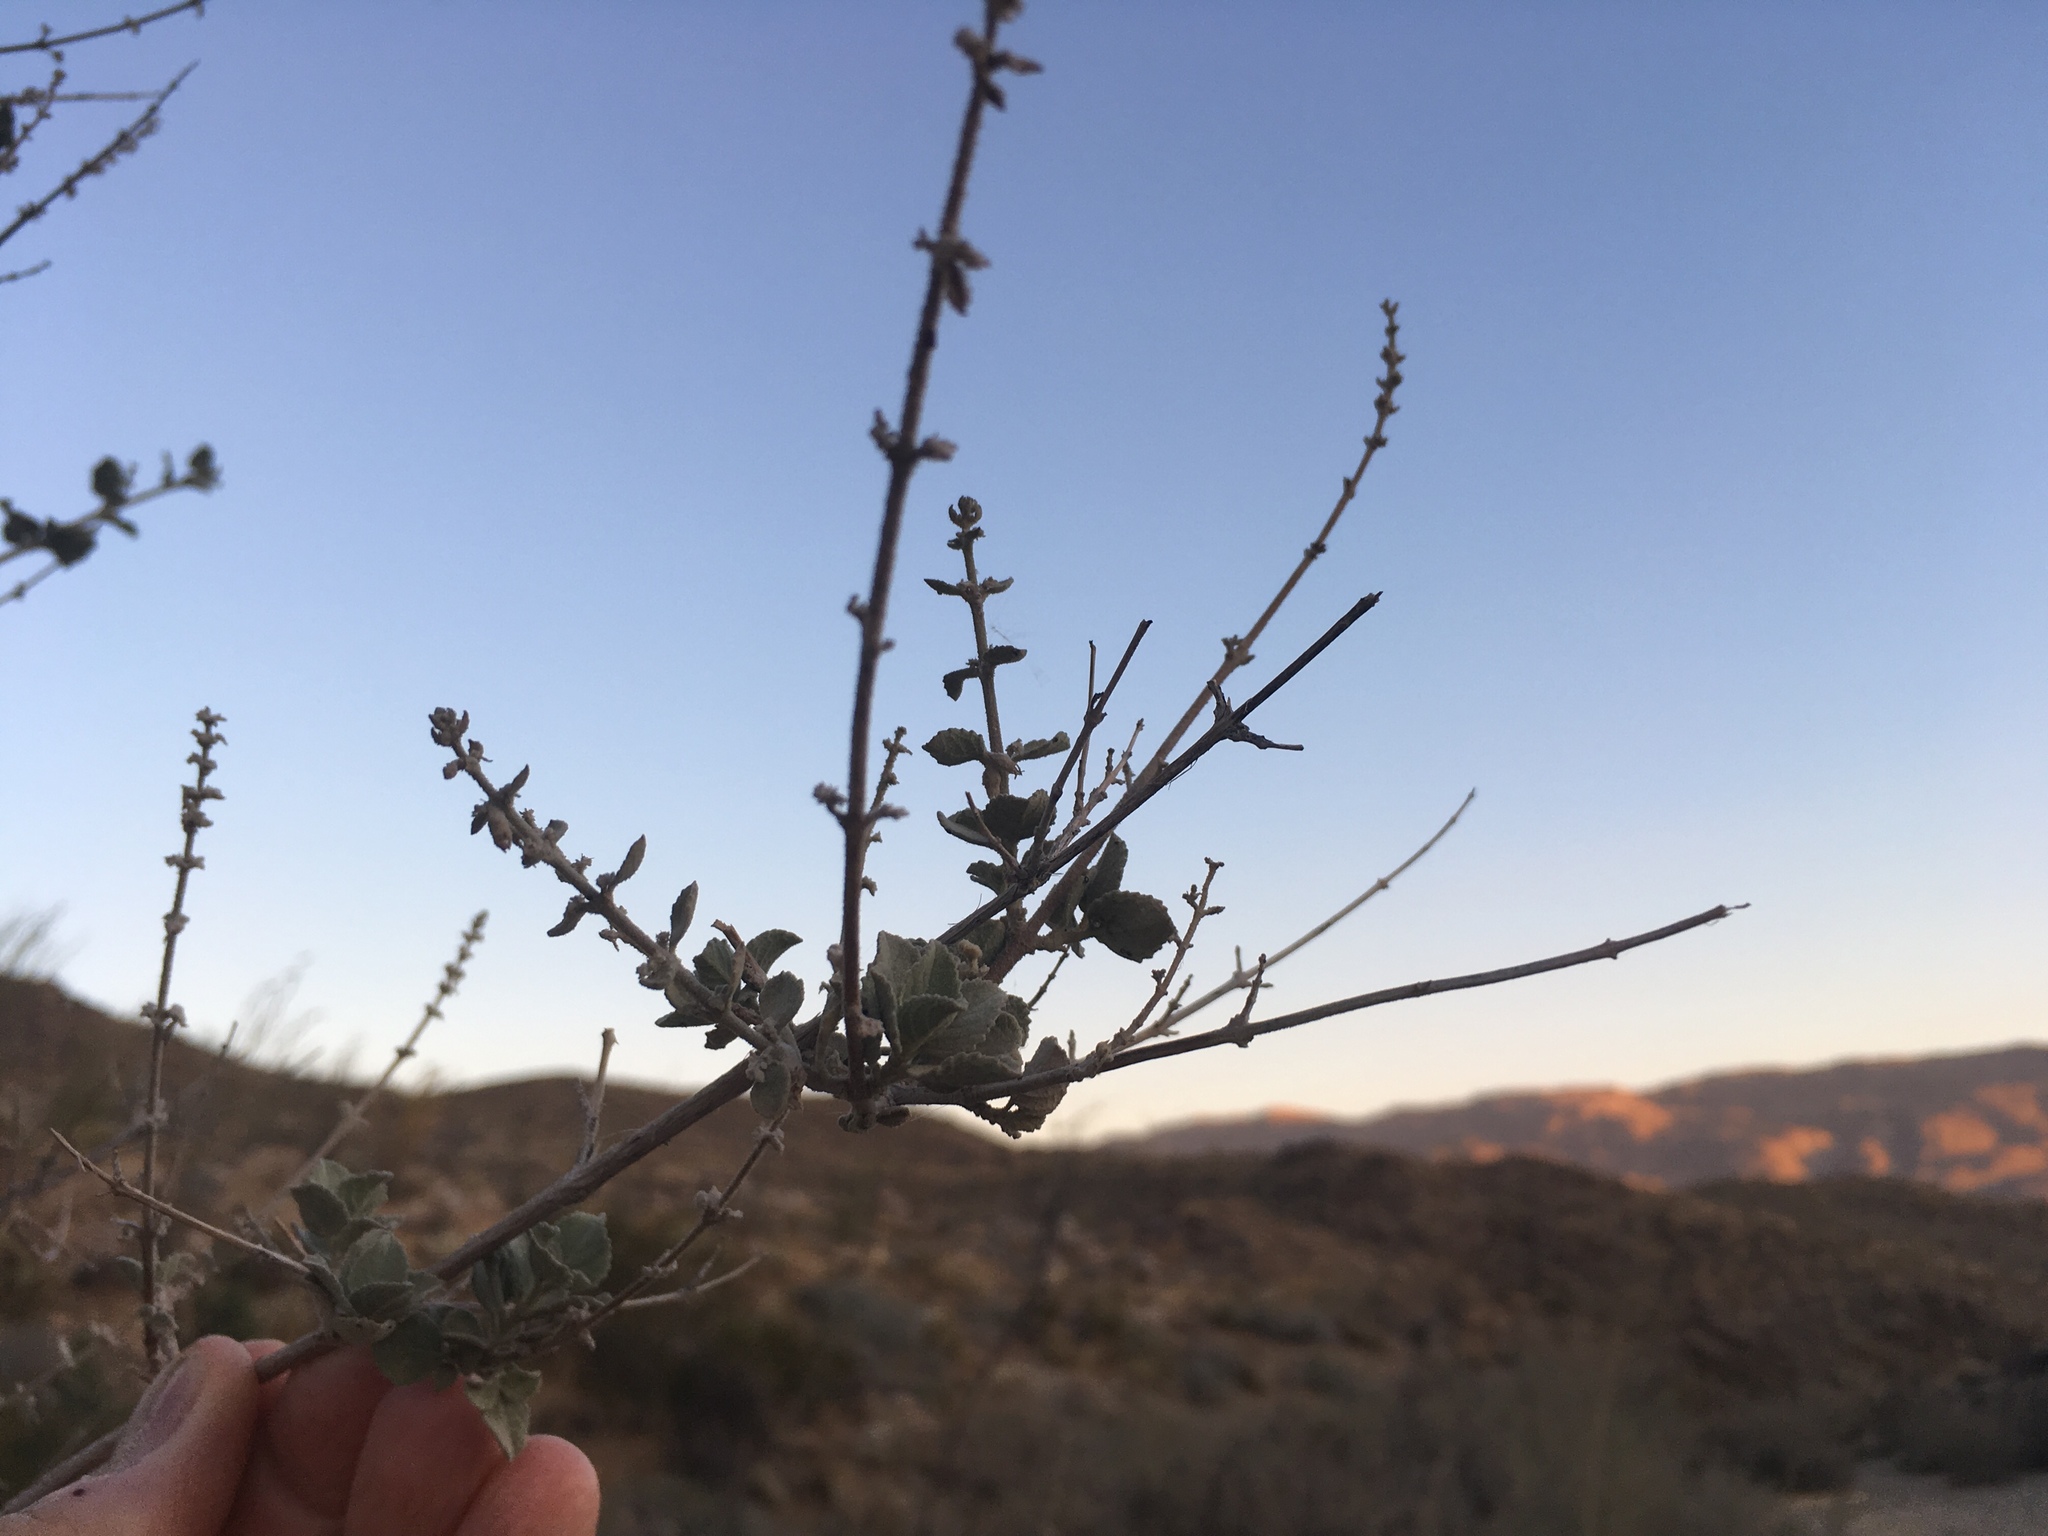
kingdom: Plantae
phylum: Tracheophyta
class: Magnoliopsida
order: Lamiales
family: Lamiaceae
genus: Condea
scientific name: Condea emoryi
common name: Chia
